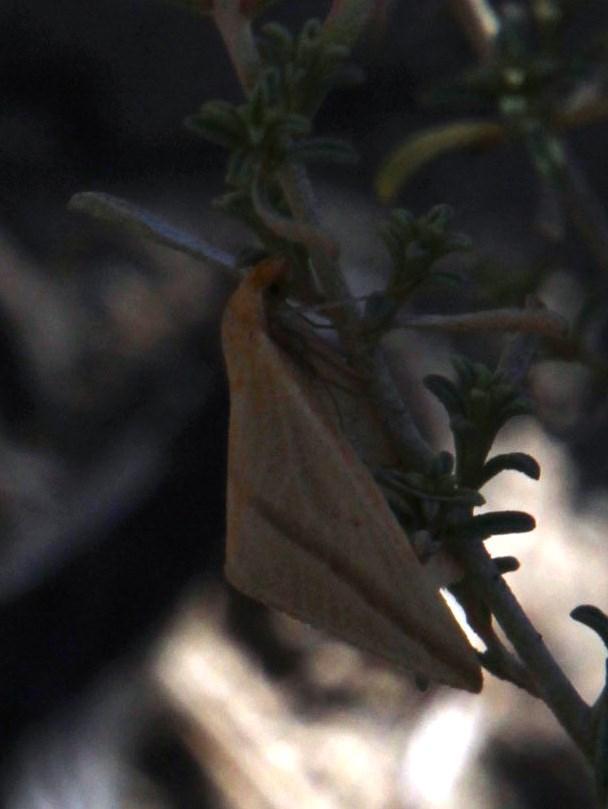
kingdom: Animalia
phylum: Arthropoda
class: Insecta
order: Lepidoptera
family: Geometridae
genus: Rhodometra
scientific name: Rhodometra sacraria
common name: Vestal
